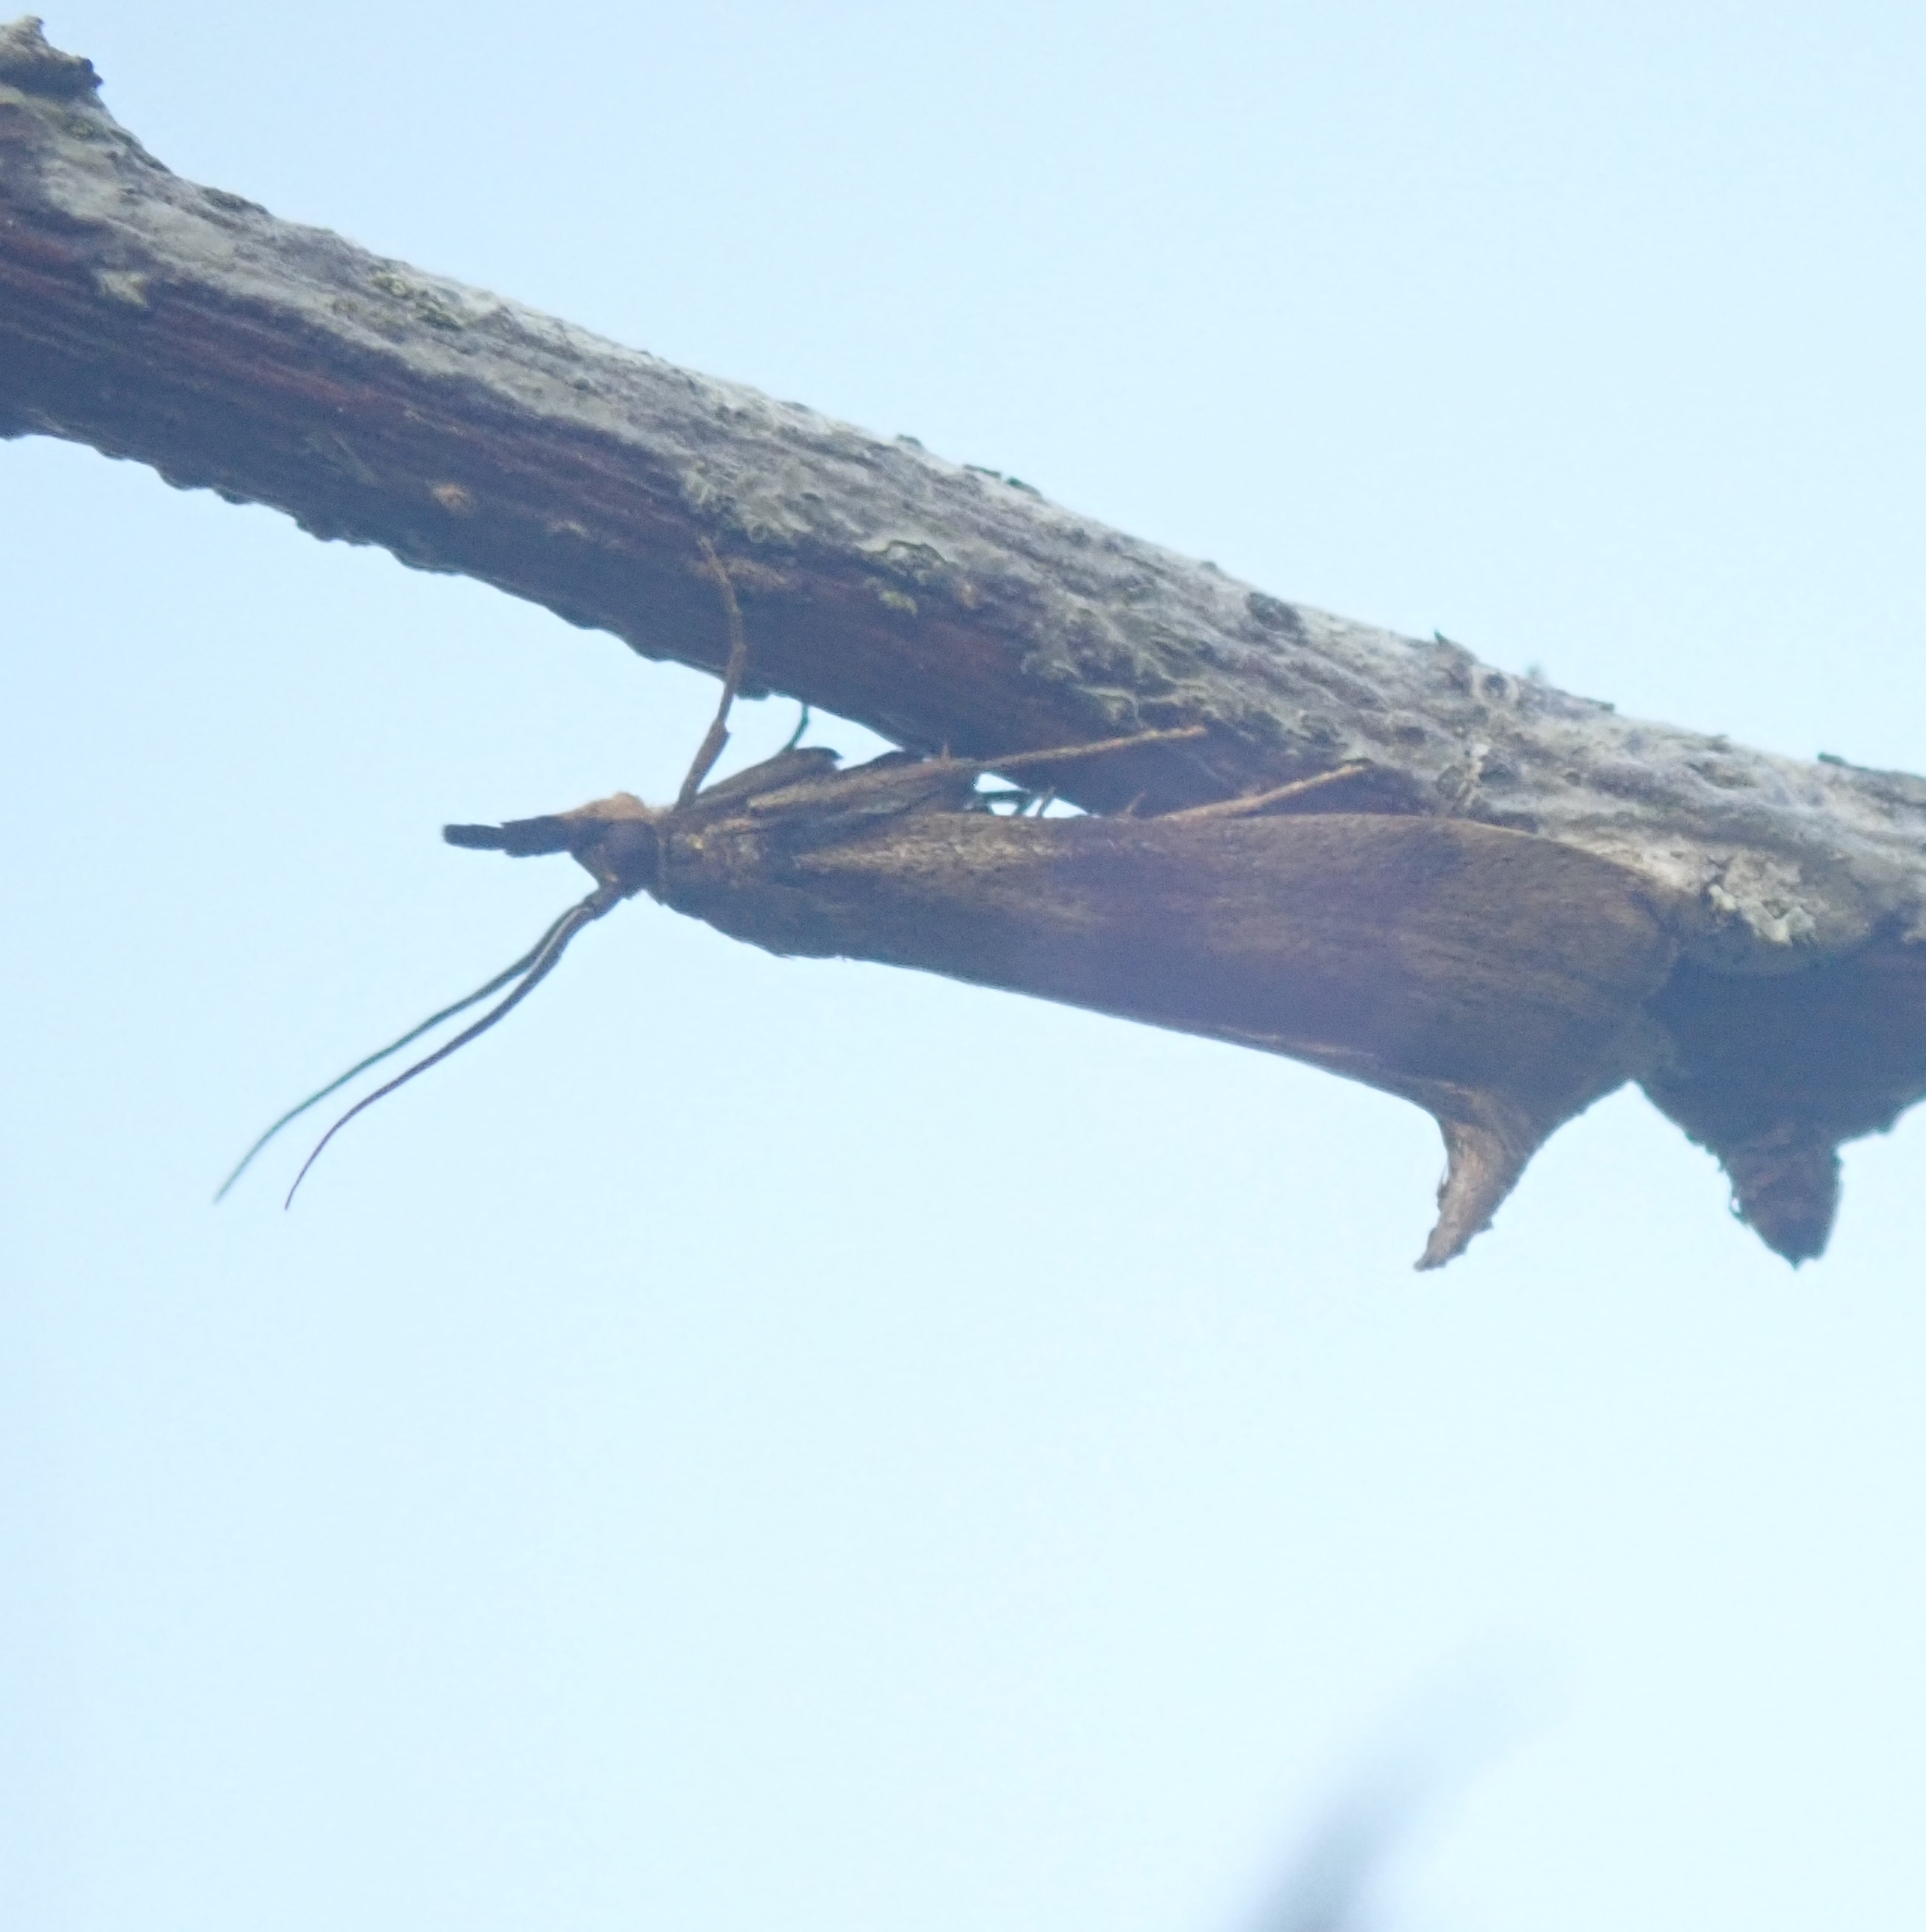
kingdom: Animalia
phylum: Arthropoda
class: Insecta
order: Lepidoptera
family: Pyralidae
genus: Hypochalcia
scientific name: Hypochalcia ahenella
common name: Dingy knot-horn
